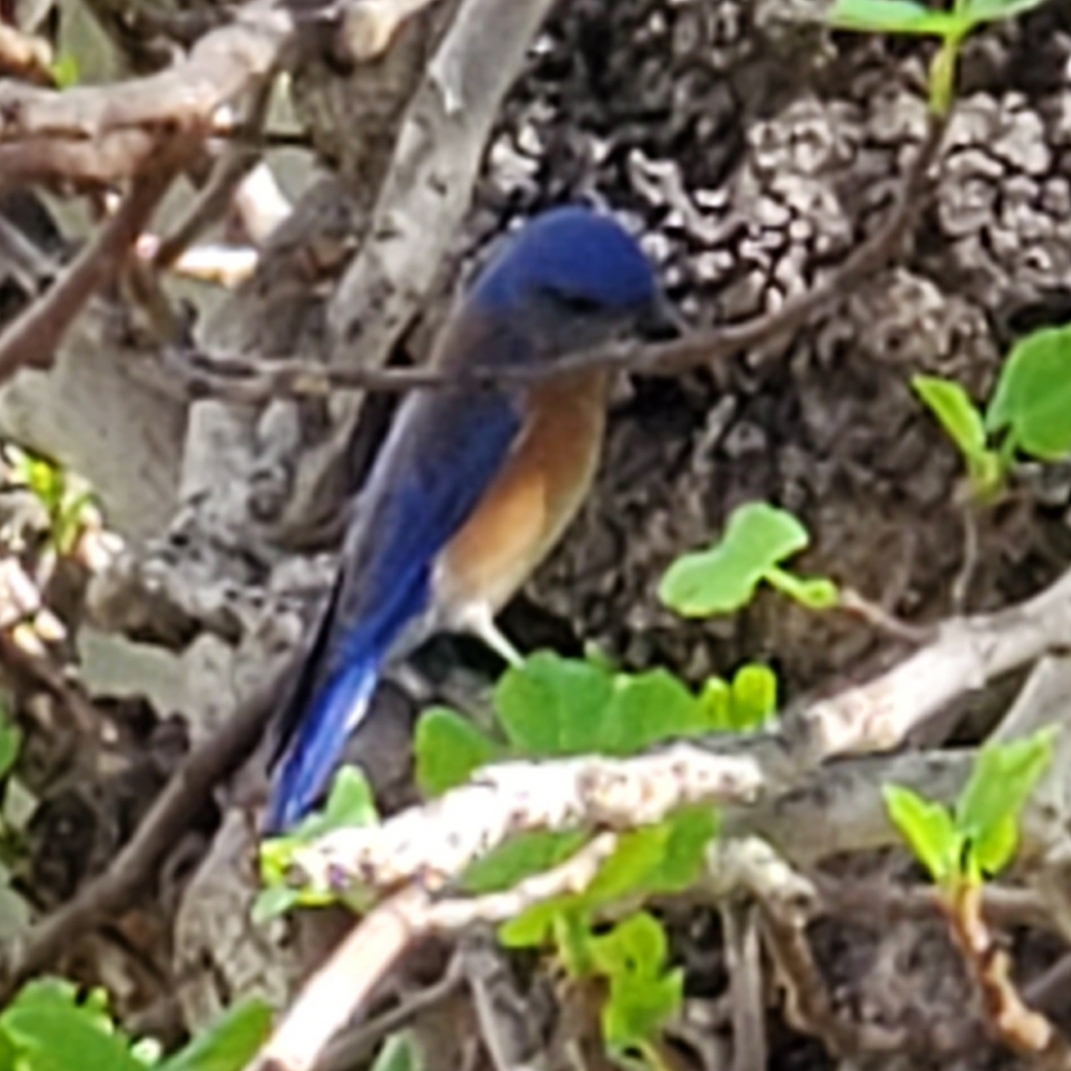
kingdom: Animalia
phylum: Chordata
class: Aves
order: Passeriformes
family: Turdidae
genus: Sialia
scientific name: Sialia mexicana
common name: Western bluebird
